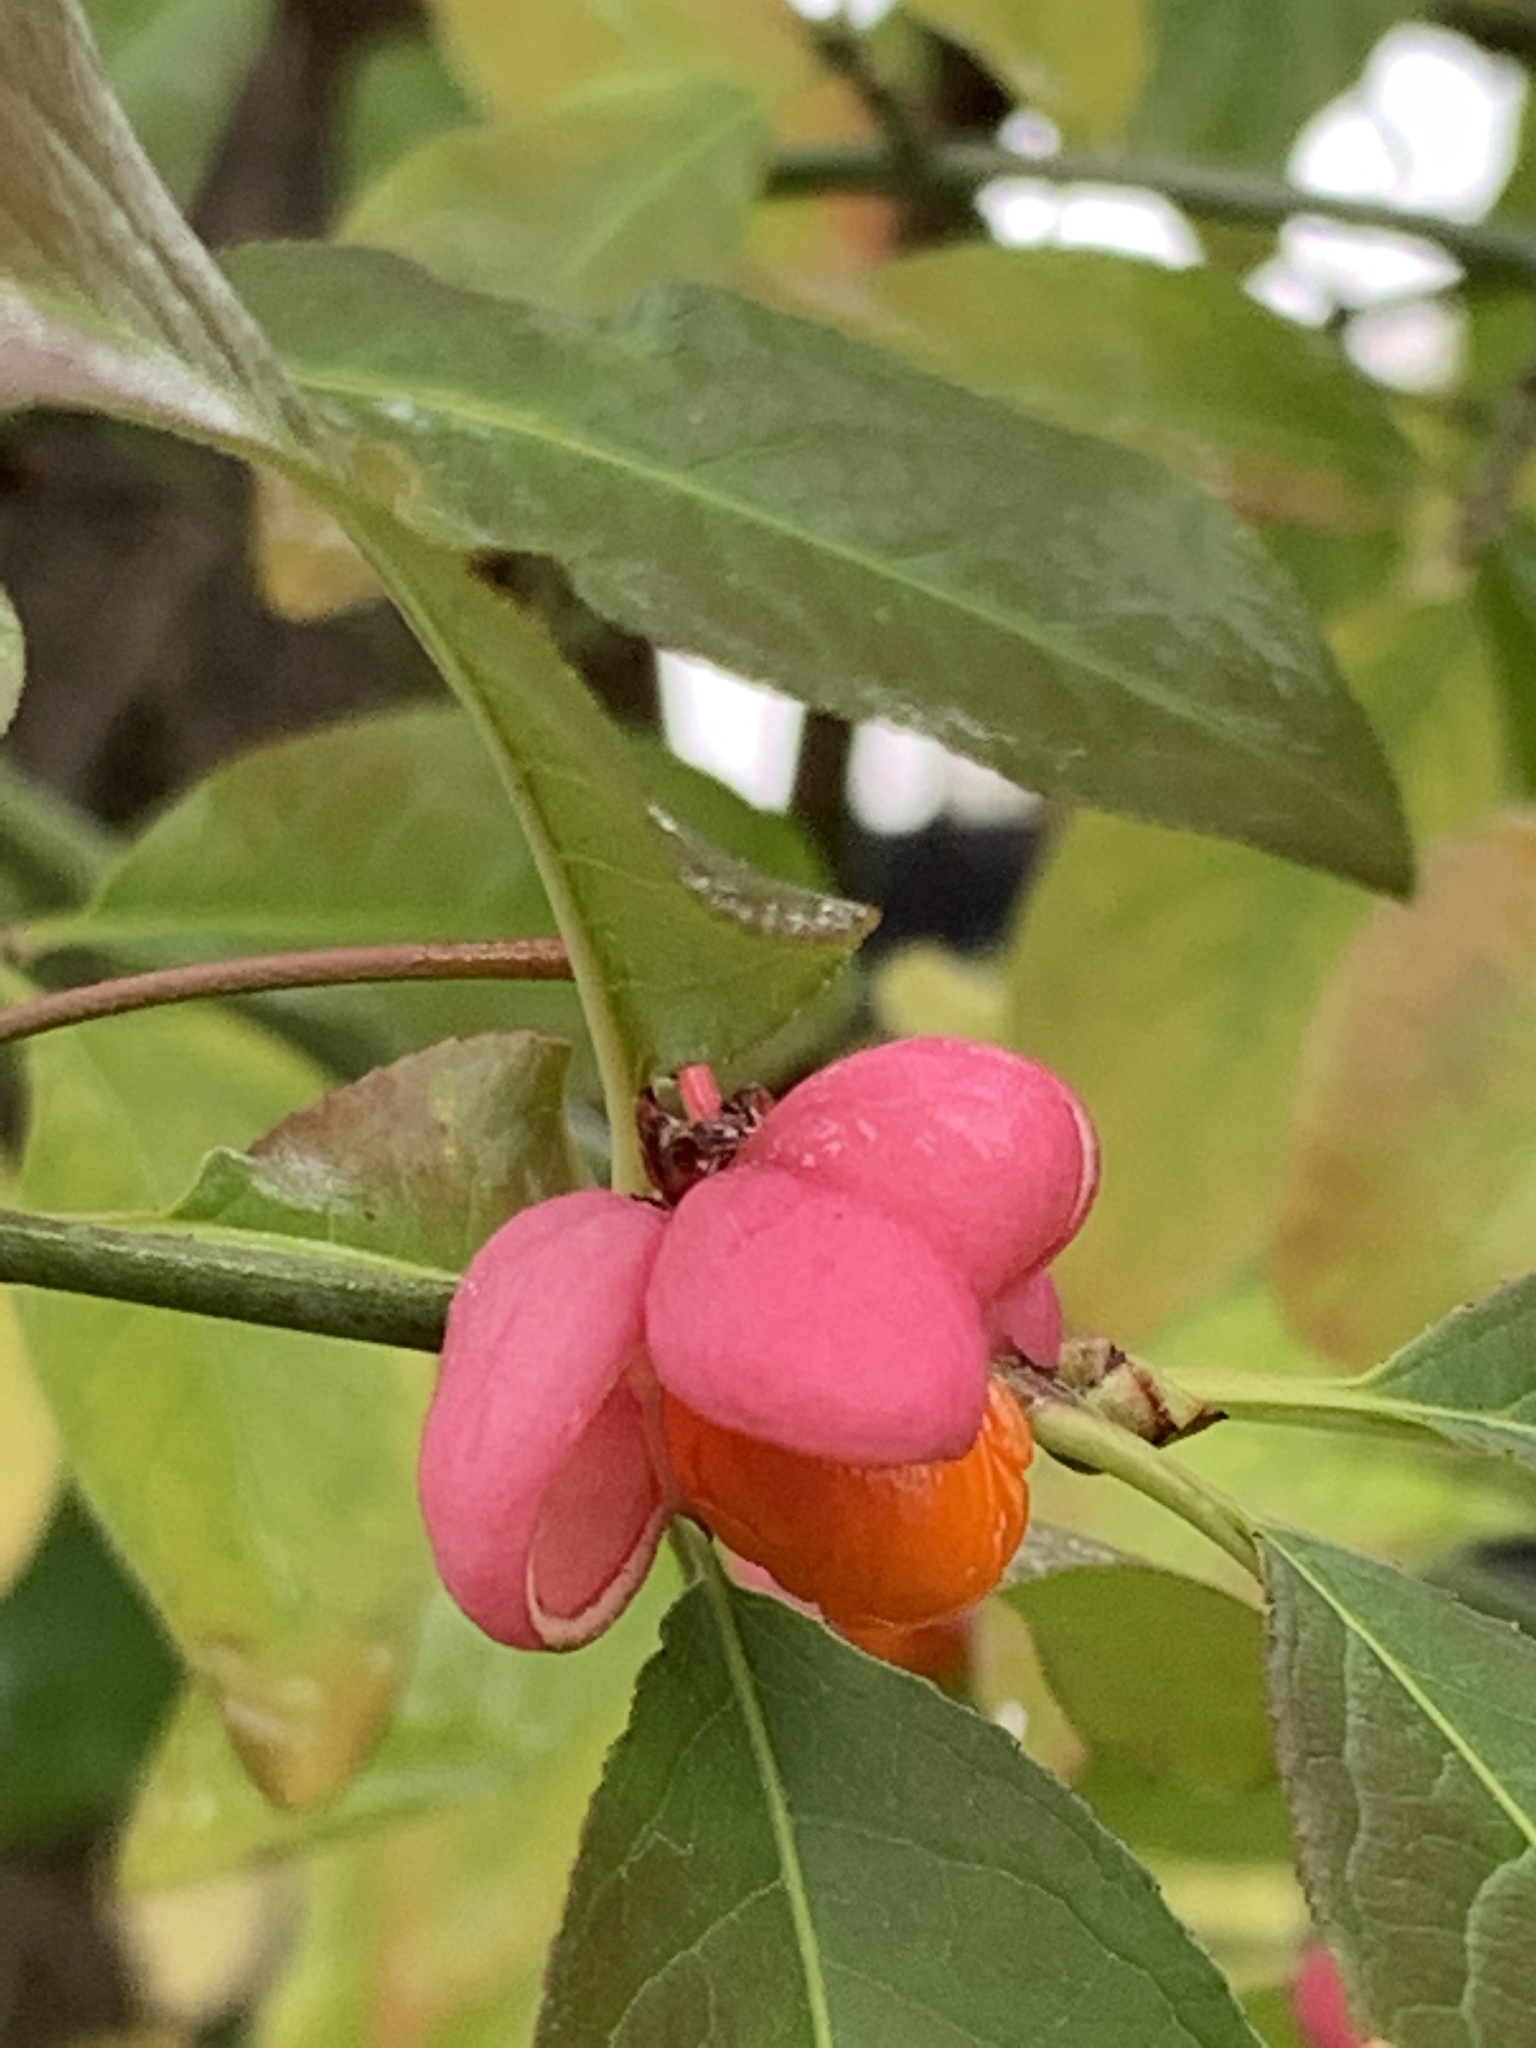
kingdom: Plantae
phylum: Tracheophyta
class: Magnoliopsida
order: Celastrales
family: Celastraceae
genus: Euonymus
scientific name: Euonymus europaeus
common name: Spindle
